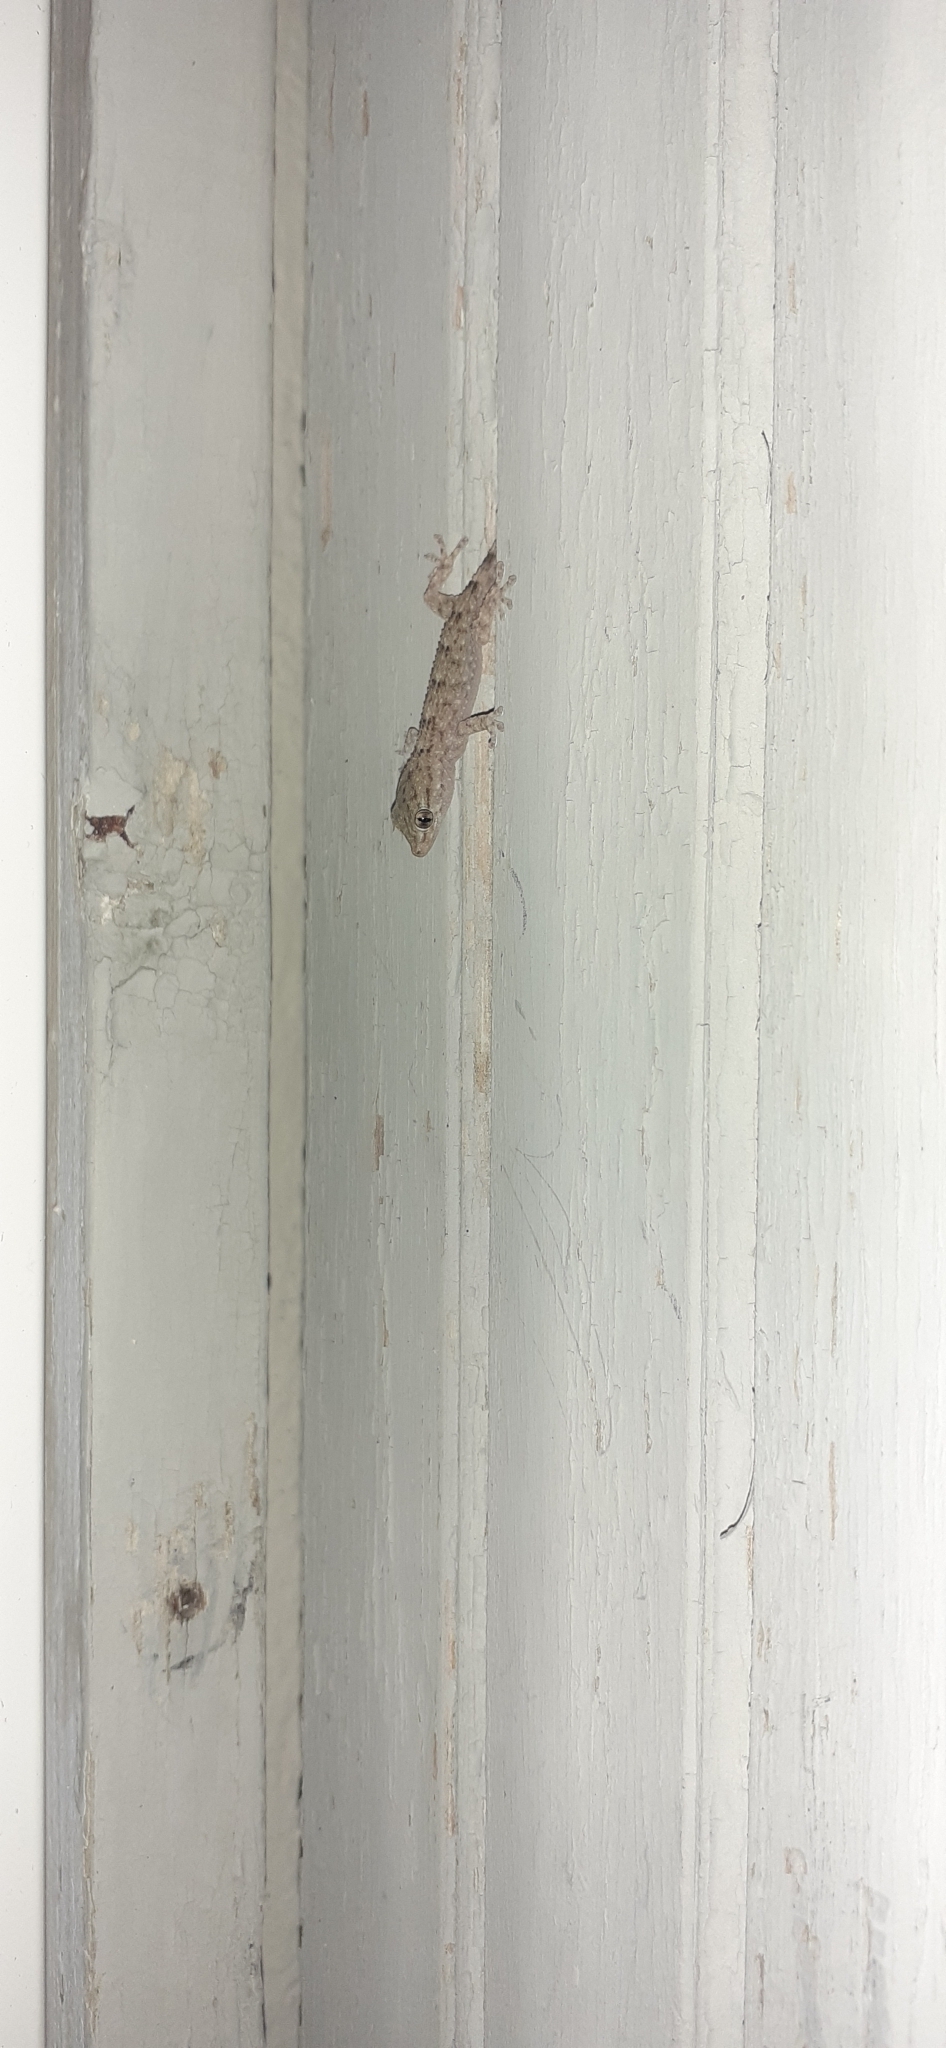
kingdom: Animalia
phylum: Chordata
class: Squamata
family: Phyllodactylidae
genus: Tarentola
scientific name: Tarentola mauritanica
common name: Moorish gecko
